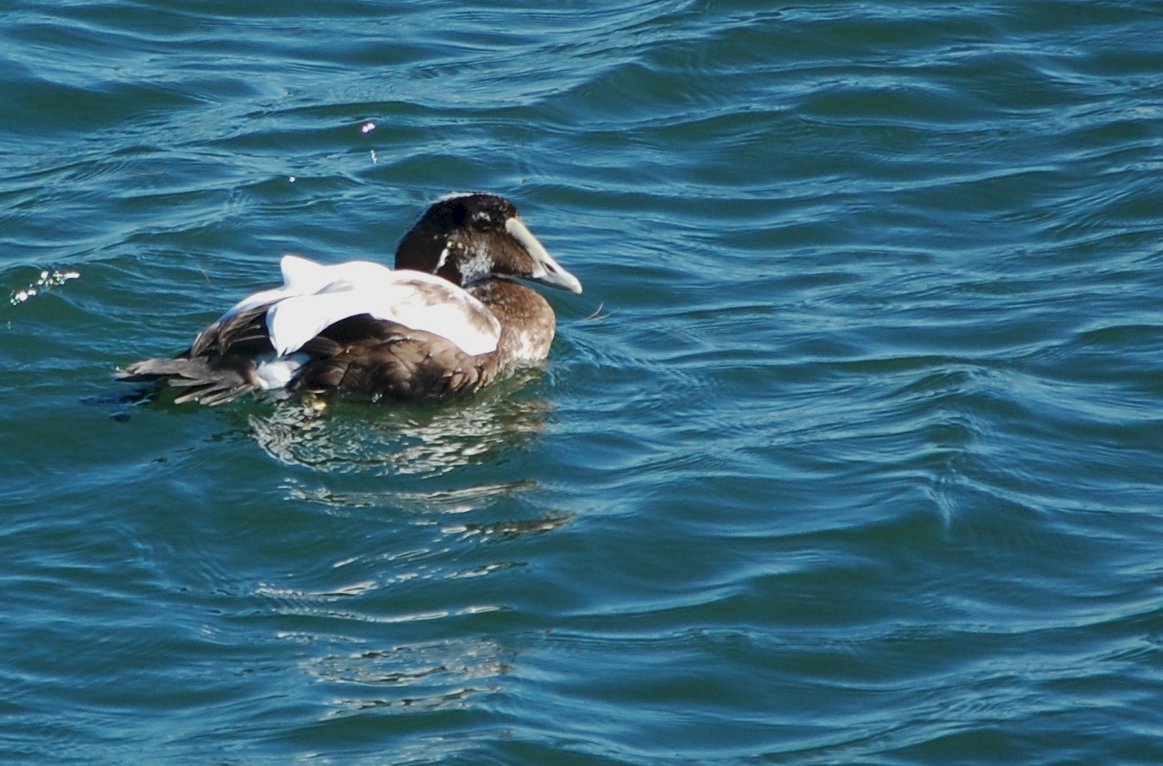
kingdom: Animalia
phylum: Chordata
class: Aves
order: Anseriformes
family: Anatidae
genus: Somateria
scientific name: Somateria mollissima
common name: Common eider
